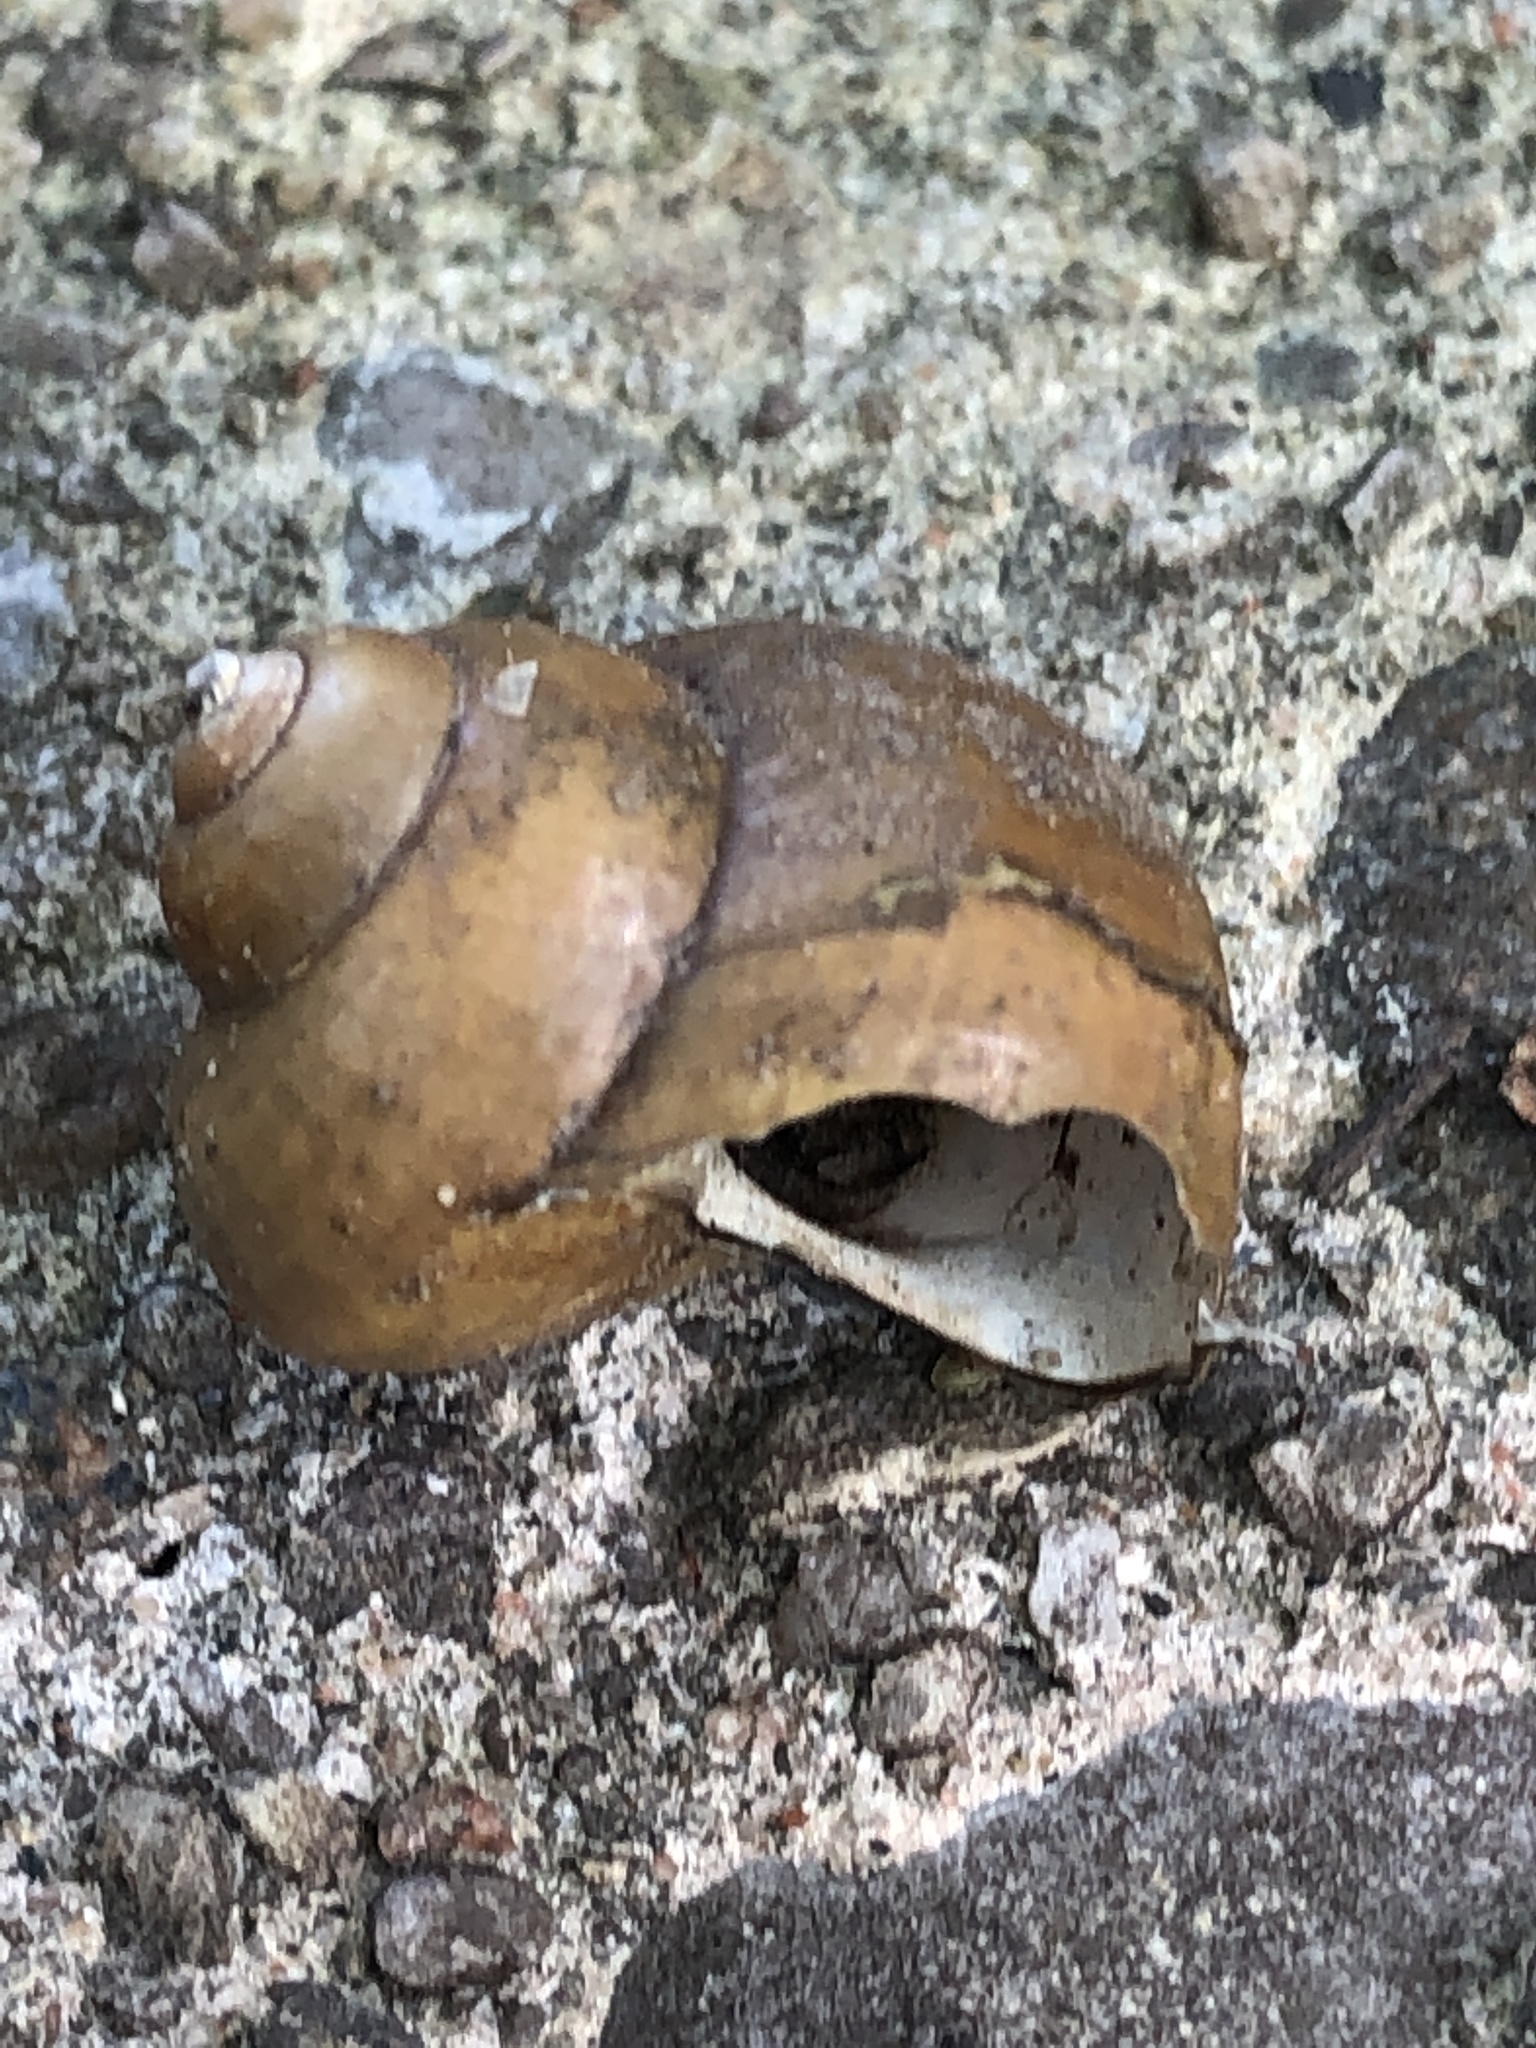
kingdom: Animalia
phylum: Mollusca
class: Gastropoda
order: Architaenioglossa
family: Viviparidae
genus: Cipangopaludina
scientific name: Cipangopaludina chinensis
